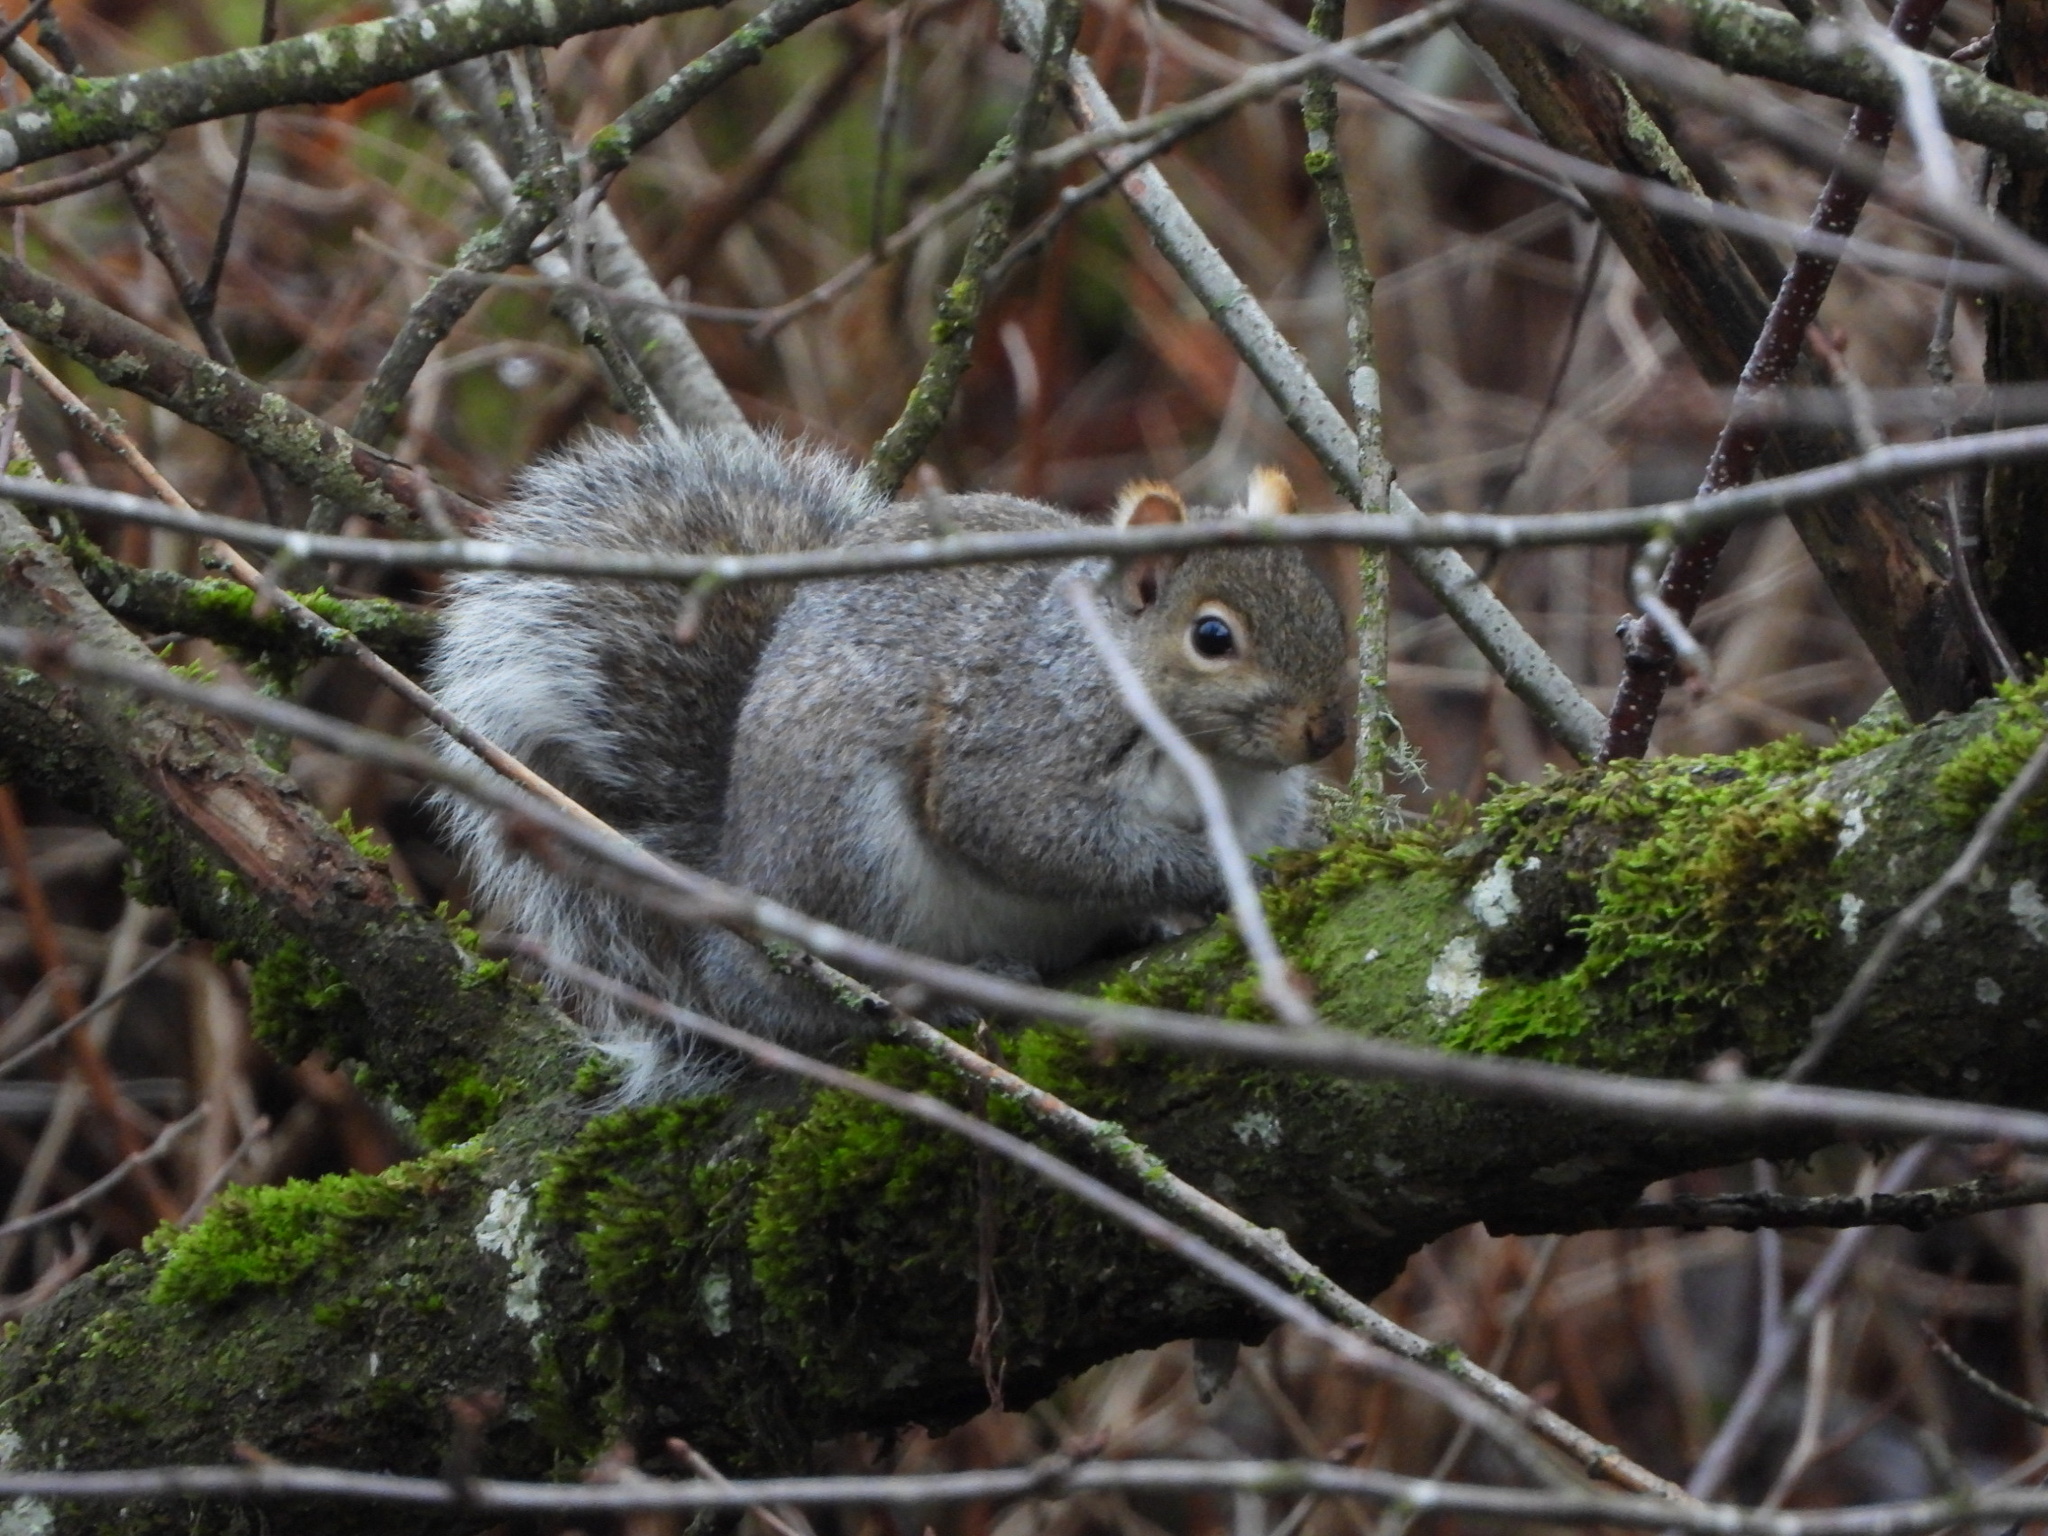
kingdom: Animalia
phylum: Chordata
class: Mammalia
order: Rodentia
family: Sciuridae
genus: Sciurus
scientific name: Sciurus carolinensis
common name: Eastern gray squirrel
